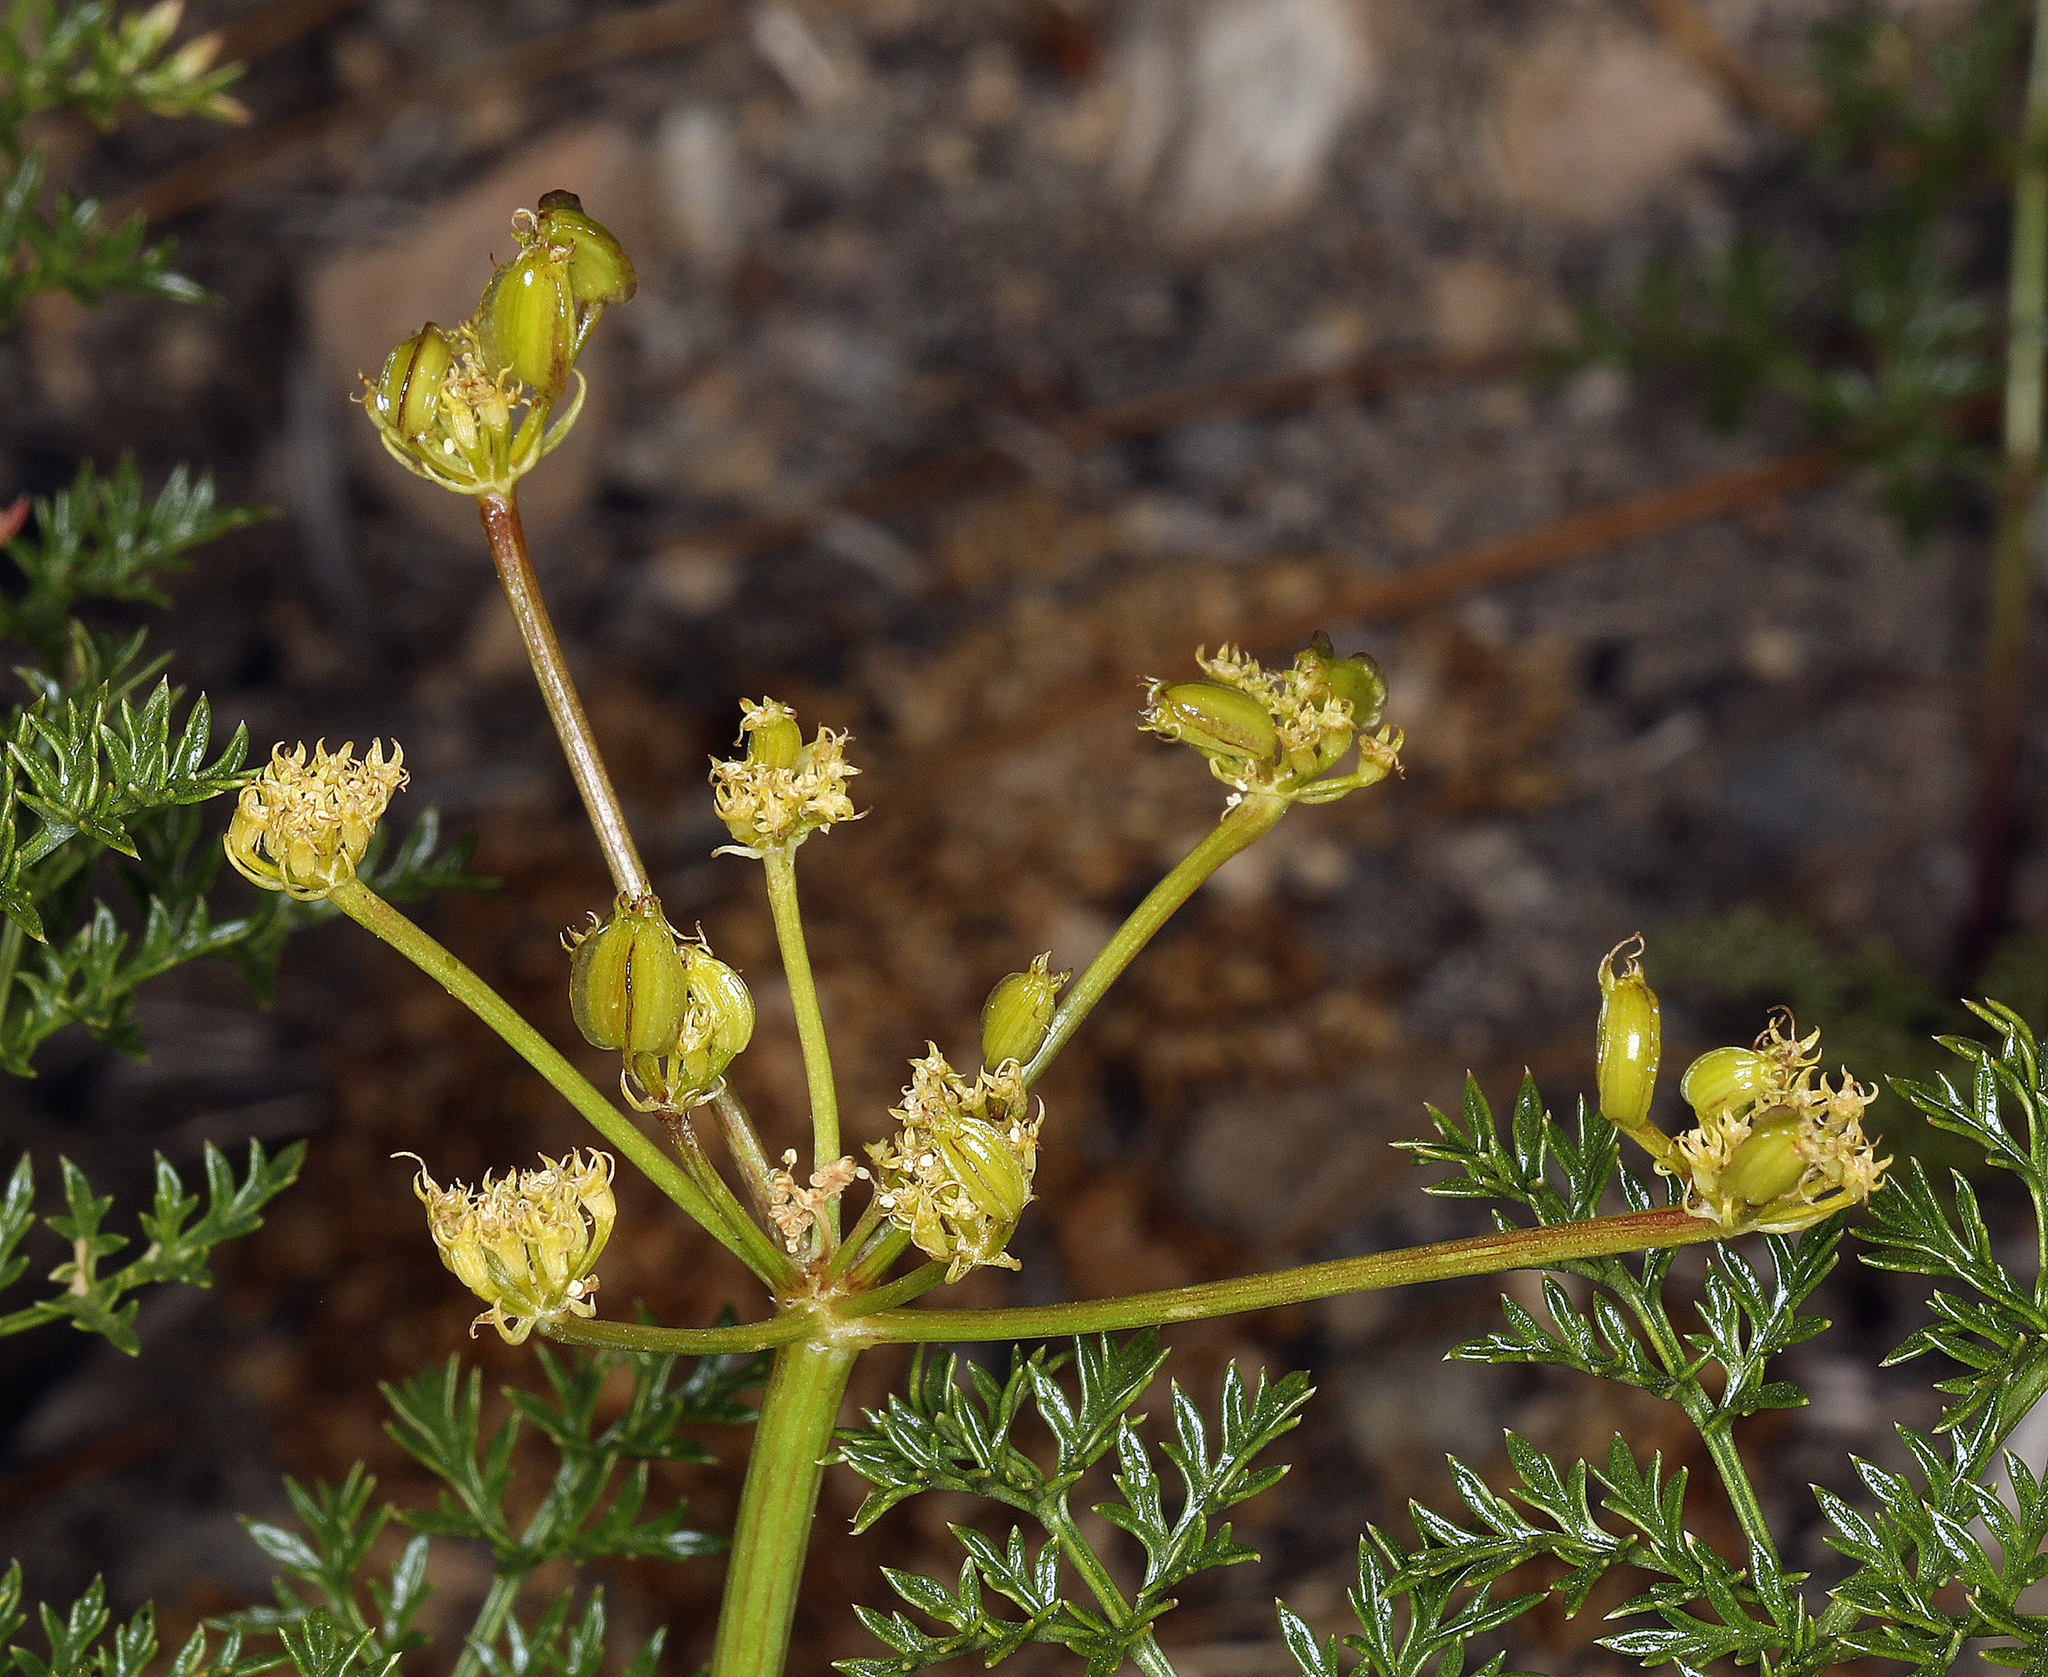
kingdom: Plantae
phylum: Tracheophyta
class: Magnoliopsida
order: Apiales
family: Apiaceae
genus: Pteryxia
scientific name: Pteryxia terebinthina
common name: Turpentine wavewing
